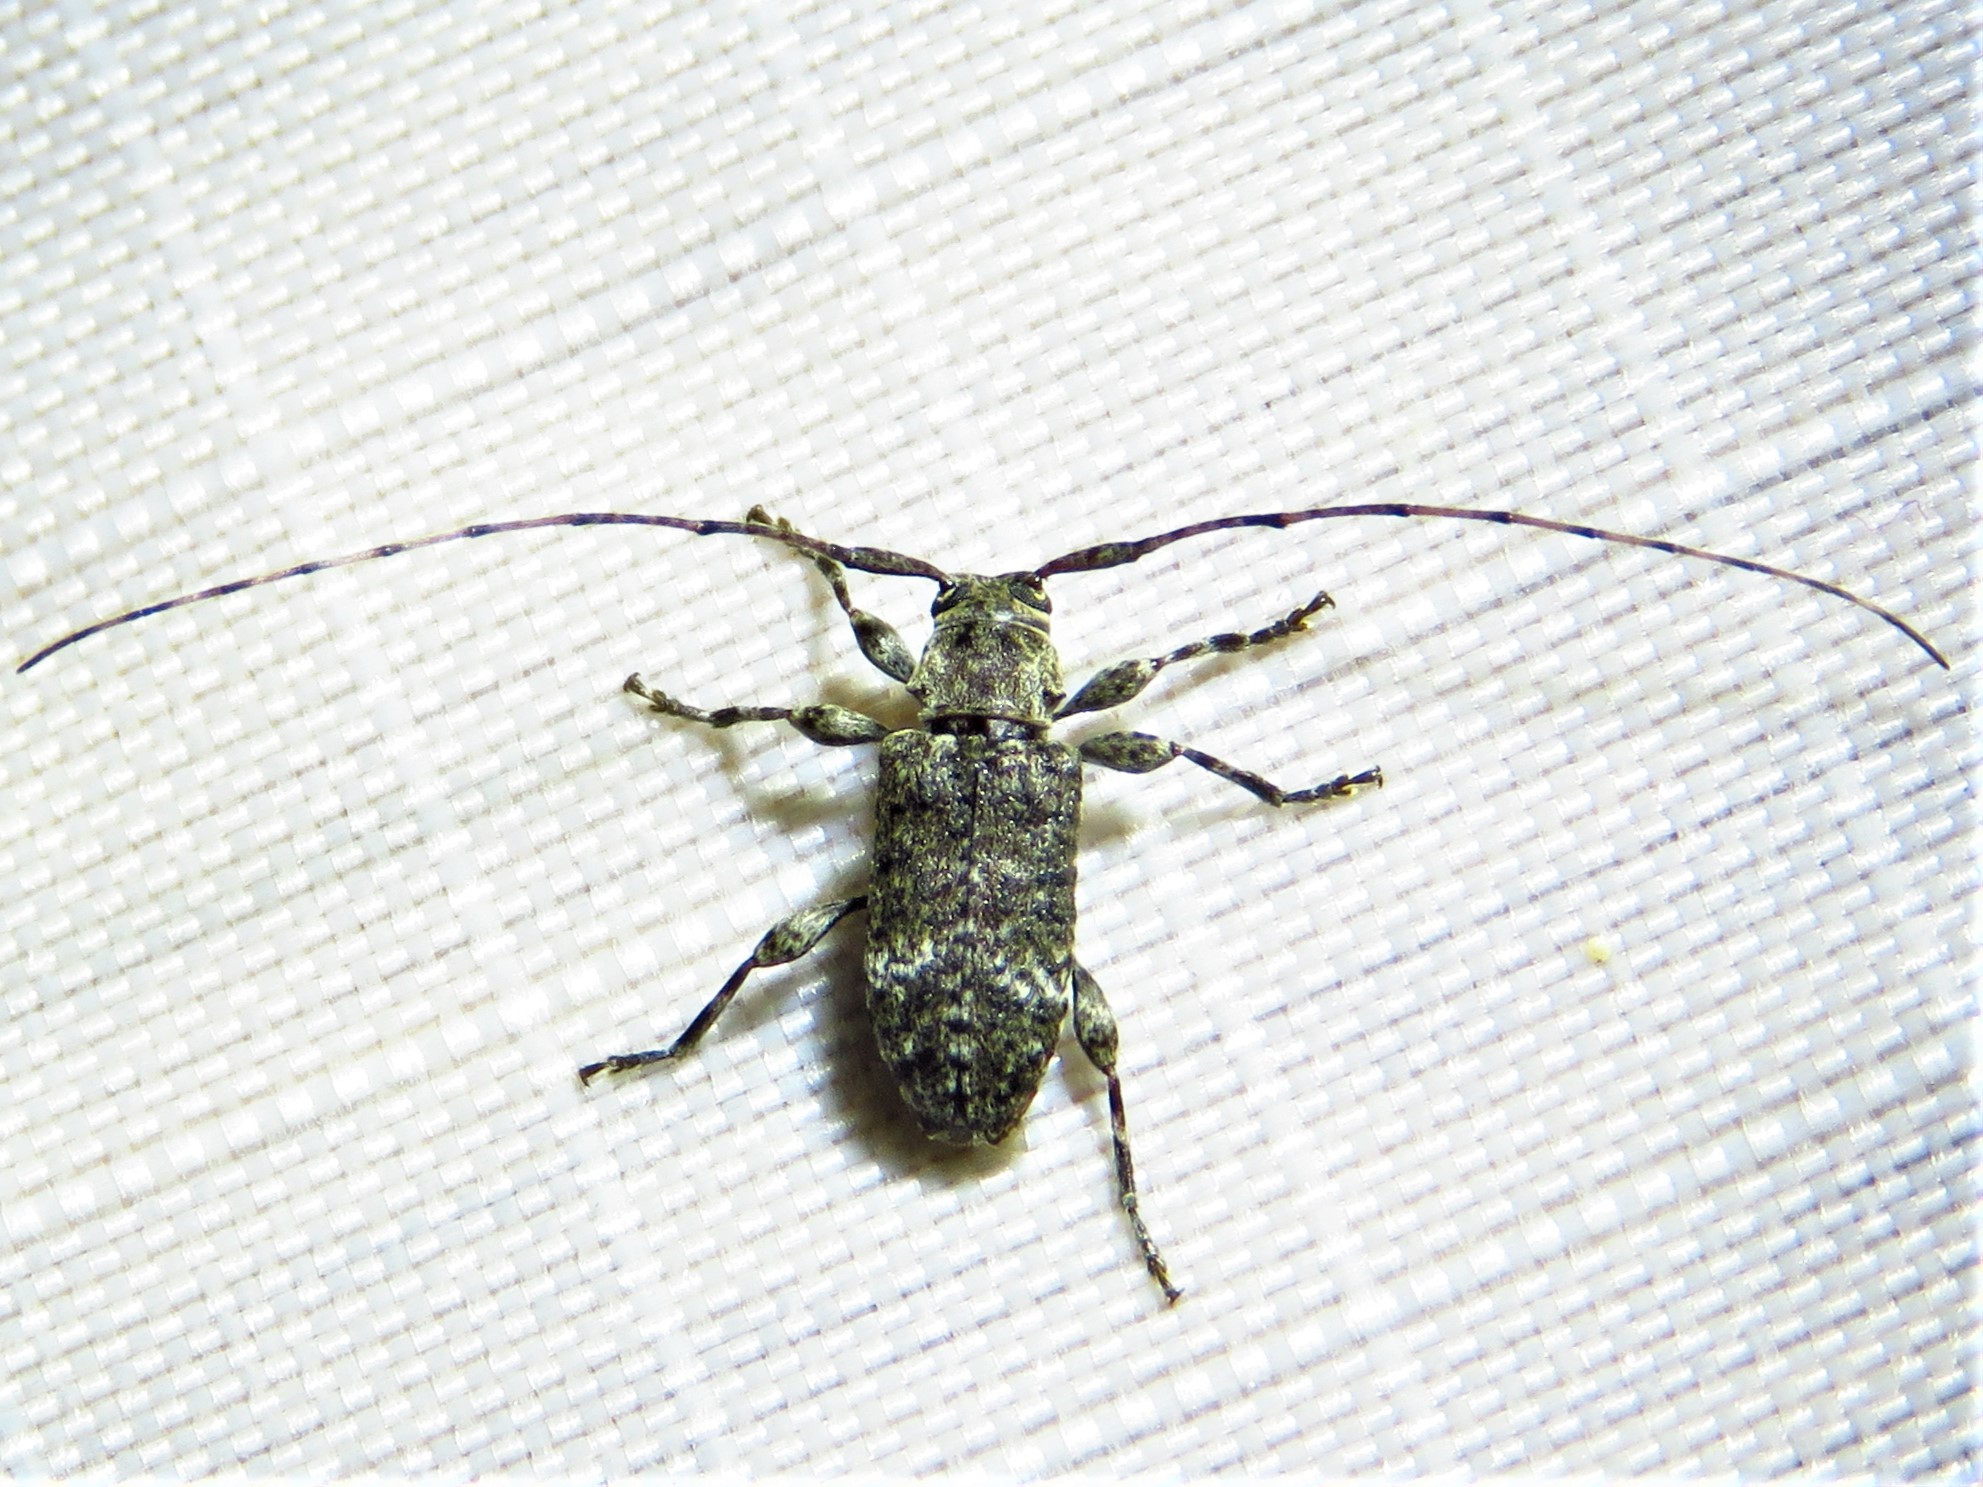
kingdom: Animalia
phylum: Arthropoda
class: Insecta
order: Coleoptera
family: Cerambycidae
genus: Sternidius
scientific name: Sternidius punctatus
